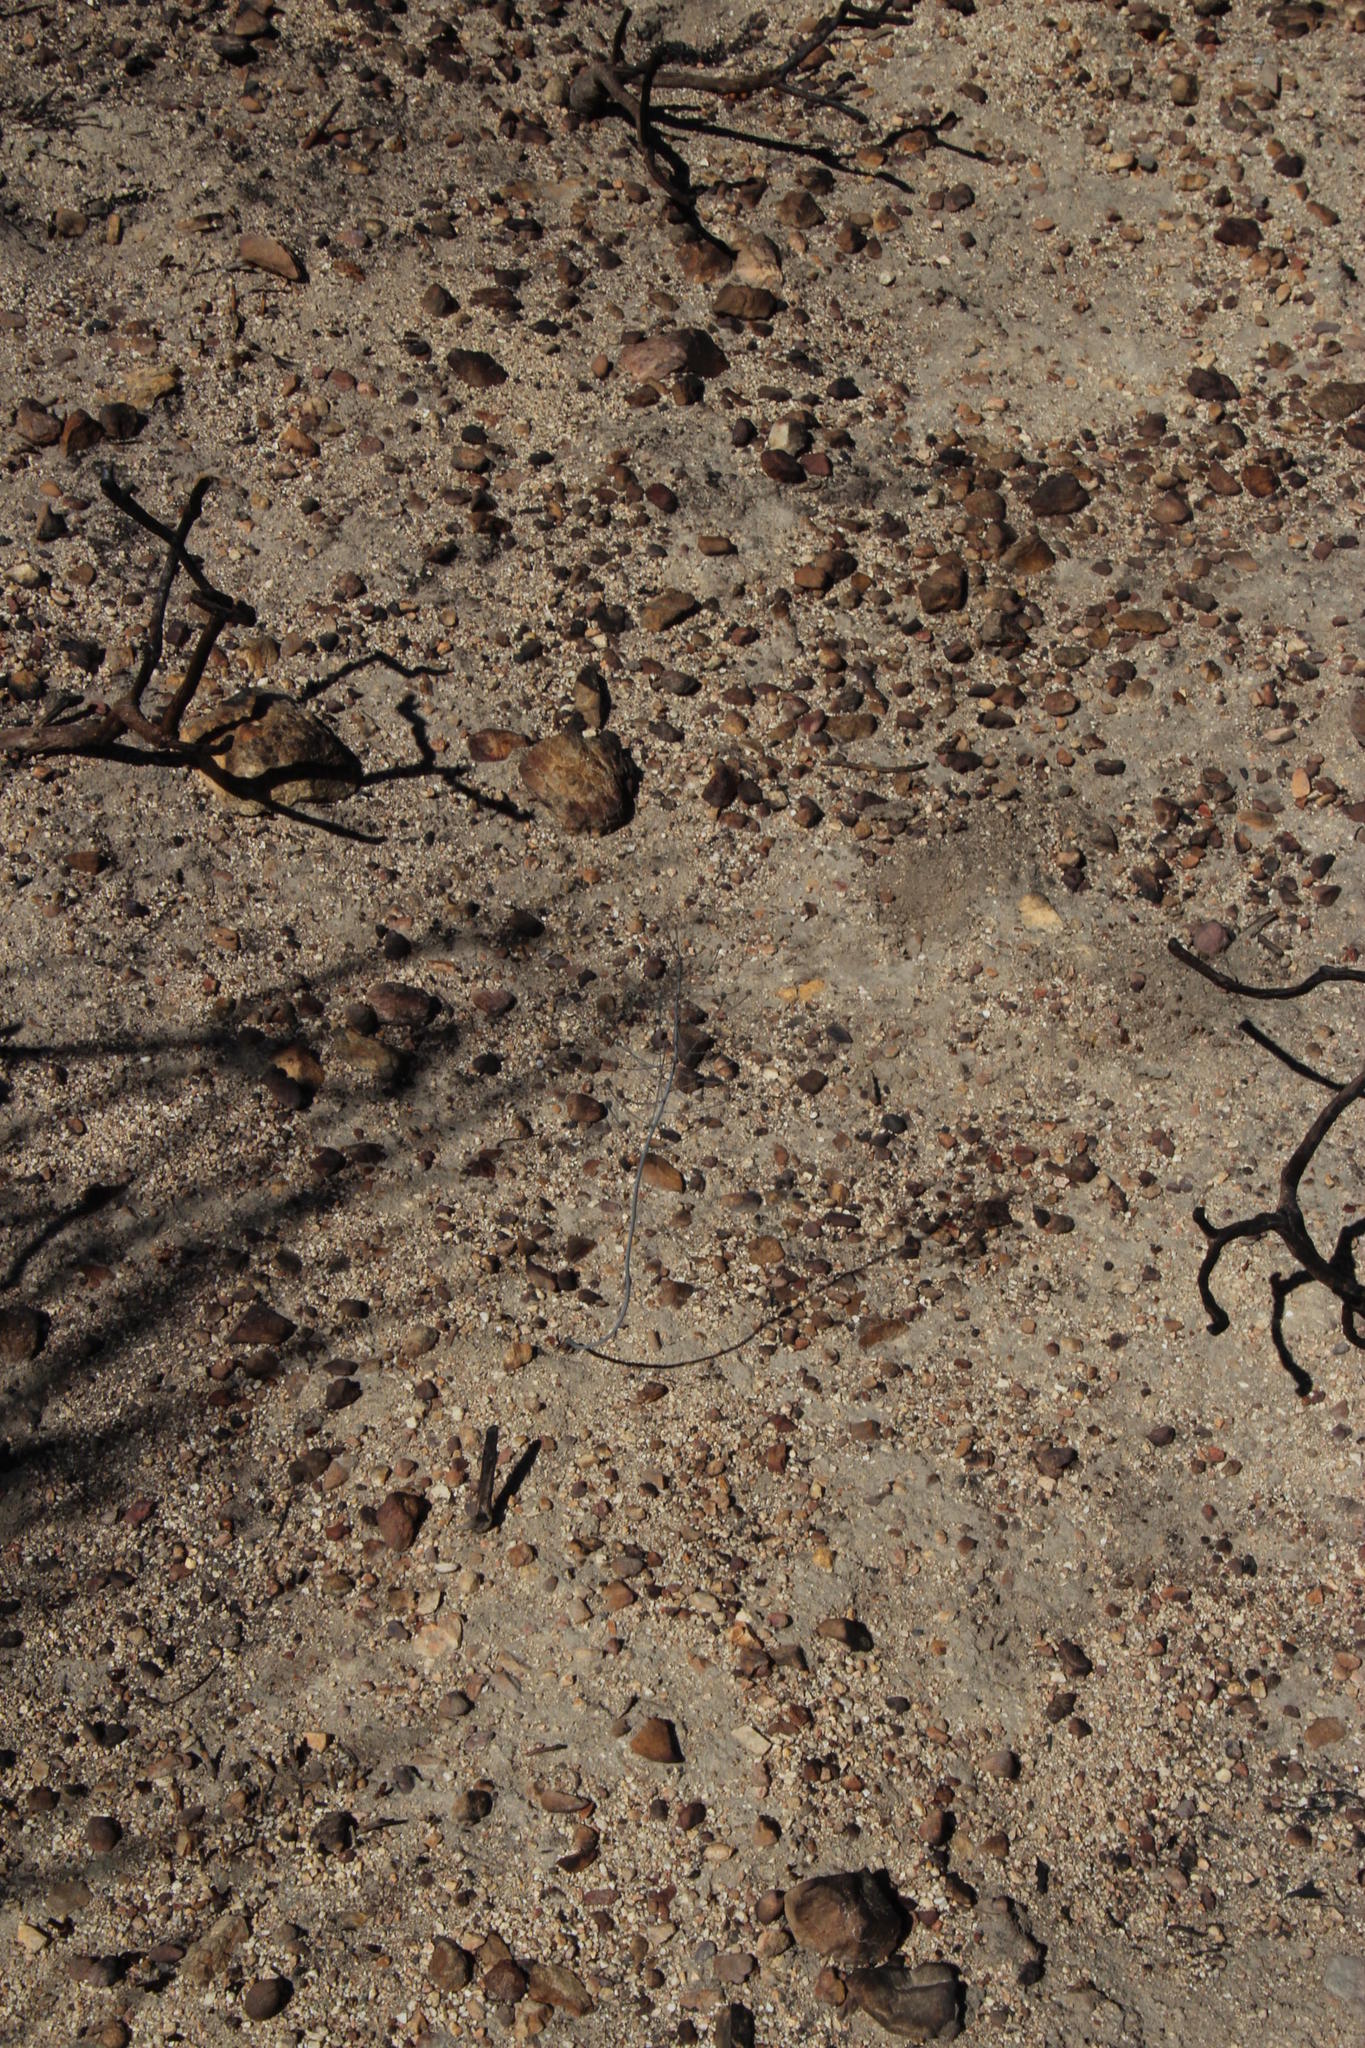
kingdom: Plantae
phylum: Tracheophyta
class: Liliopsida
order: Asparagales
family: Asparagaceae
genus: Eriospermum
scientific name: Eriospermum capense
